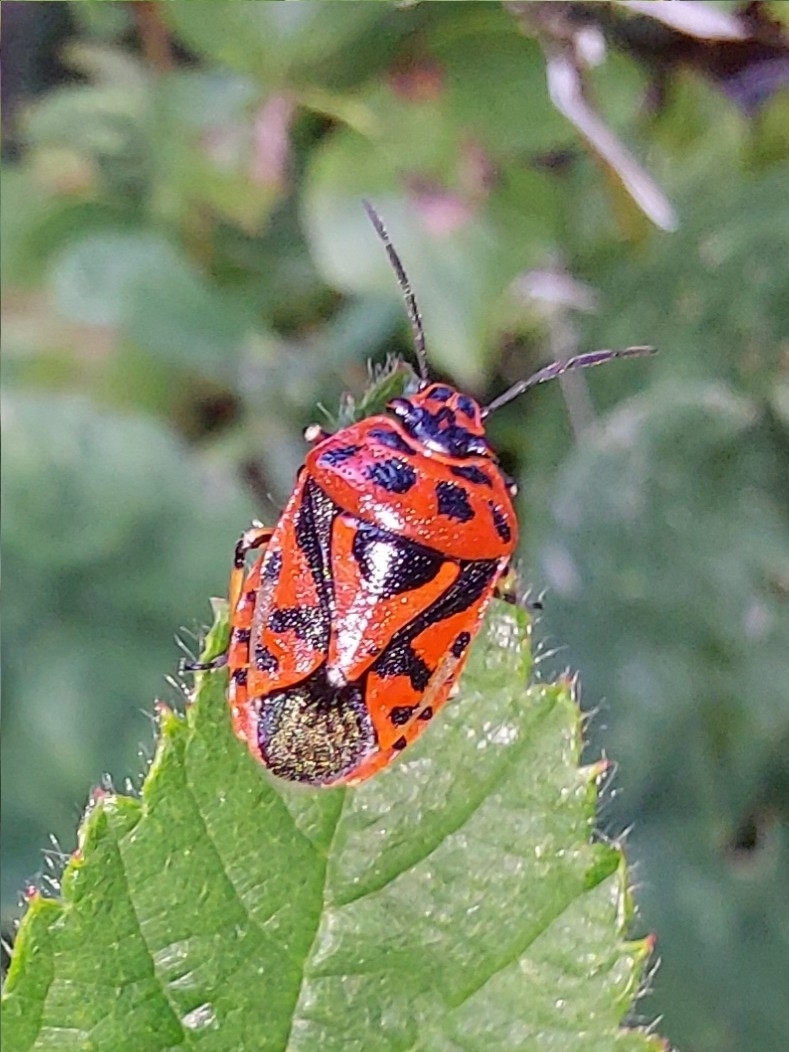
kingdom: Animalia
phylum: Arthropoda
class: Insecta
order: Hemiptera
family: Pentatomidae
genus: Eurydema
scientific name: Eurydema ornata
